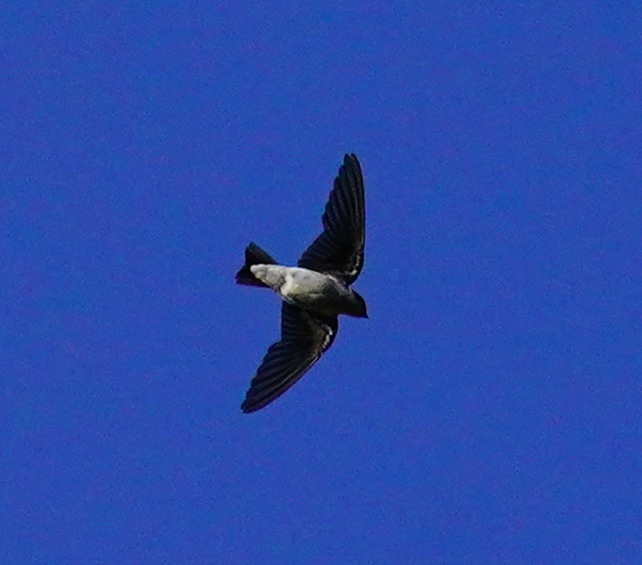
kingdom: Animalia
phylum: Chordata
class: Aves
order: Passeriformes
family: Hirundinidae
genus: Tachycineta
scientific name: Tachycineta
